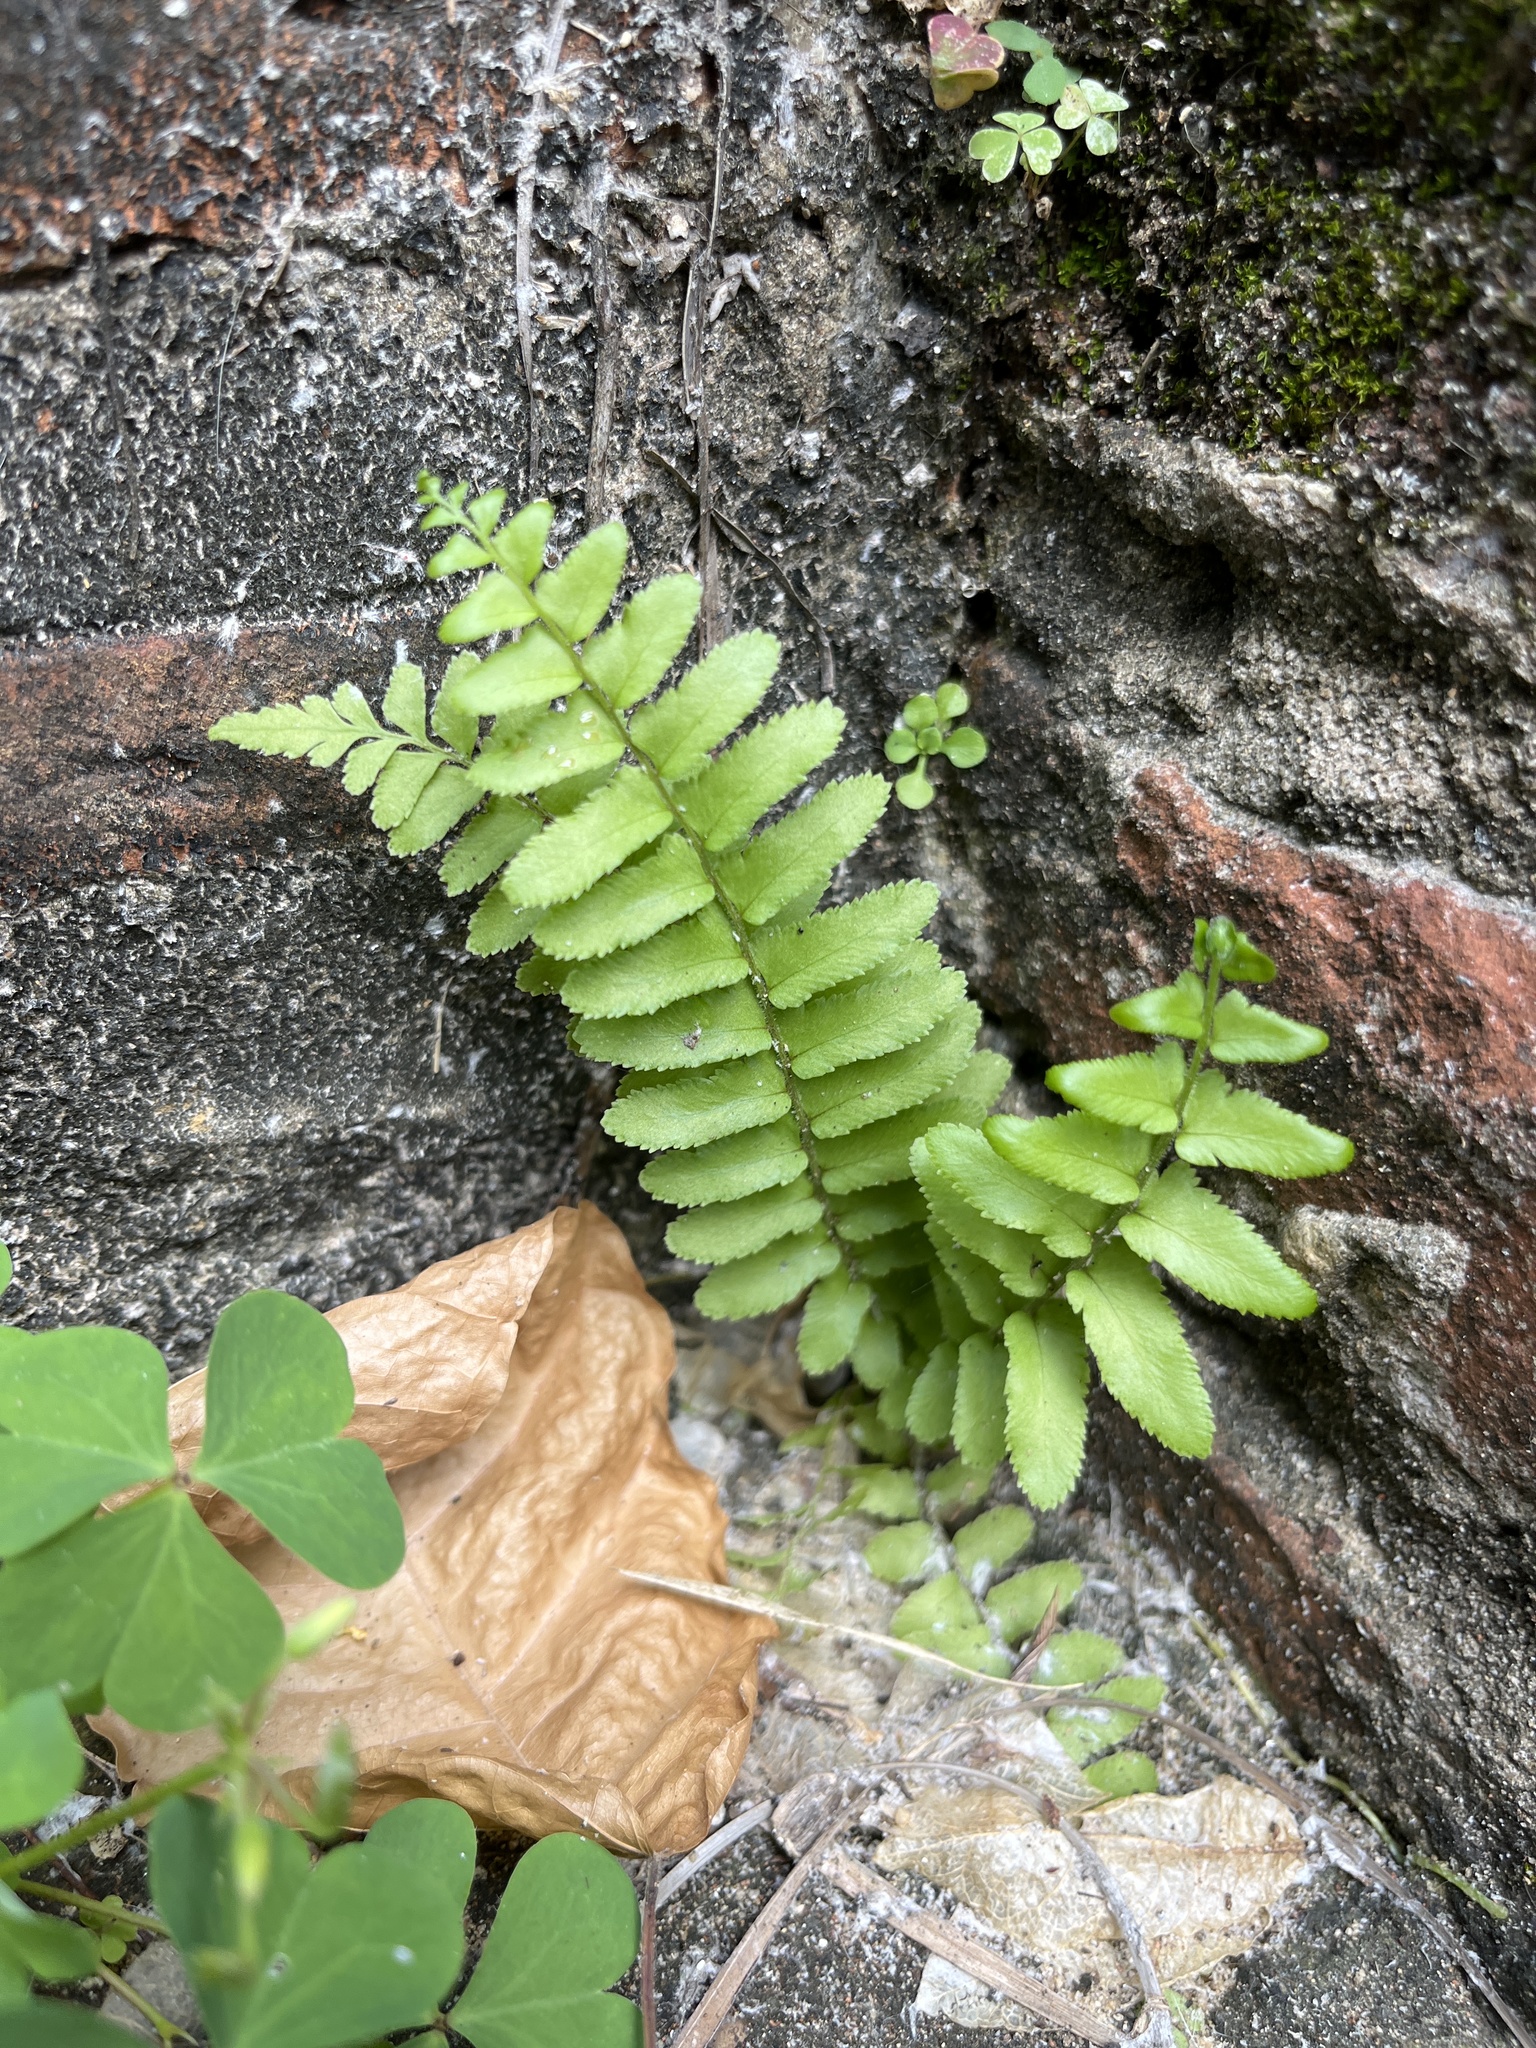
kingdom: Plantae
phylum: Tracheophyta
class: Polypodiopsida
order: Polypodiales
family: Nephrolepidaceae
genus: Nephrolepis
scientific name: Nephrolepis brownii
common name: Asian swordfern
